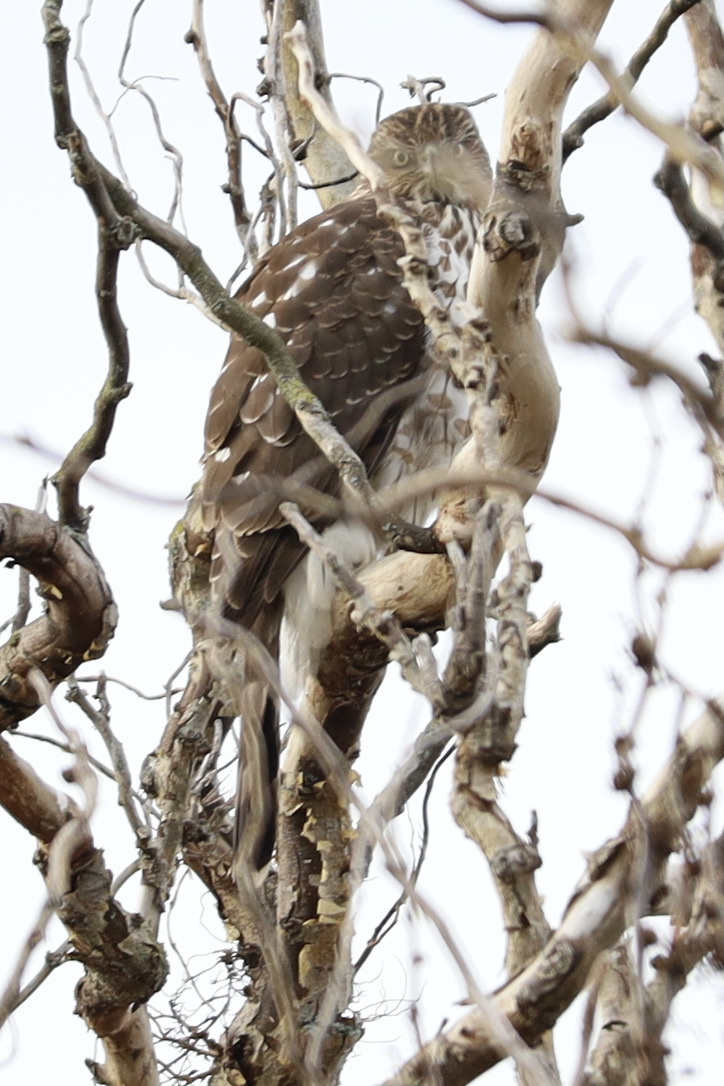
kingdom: Animalia
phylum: Chordata
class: Aves
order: Accipitriformes
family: Accipitridae
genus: Accipiter
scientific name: Accipiter cooperii
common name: Cooper's hawk
